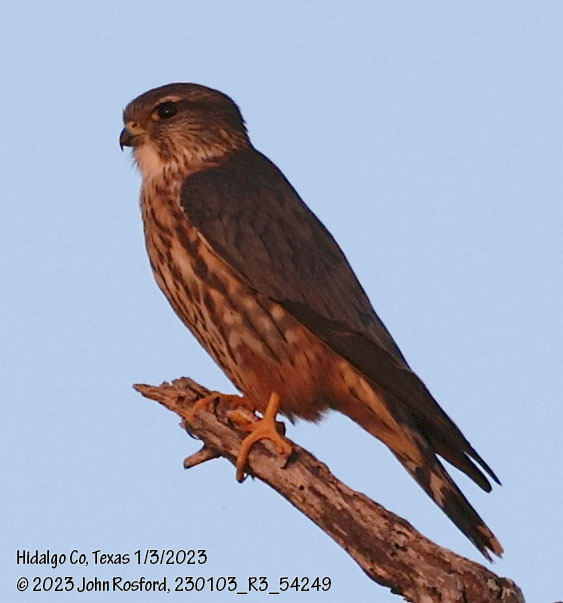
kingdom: Animalia
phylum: Chordata
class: Aves
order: Falconiformes
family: Falconidae
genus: Falco
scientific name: Falco columbarius
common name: Merlin
